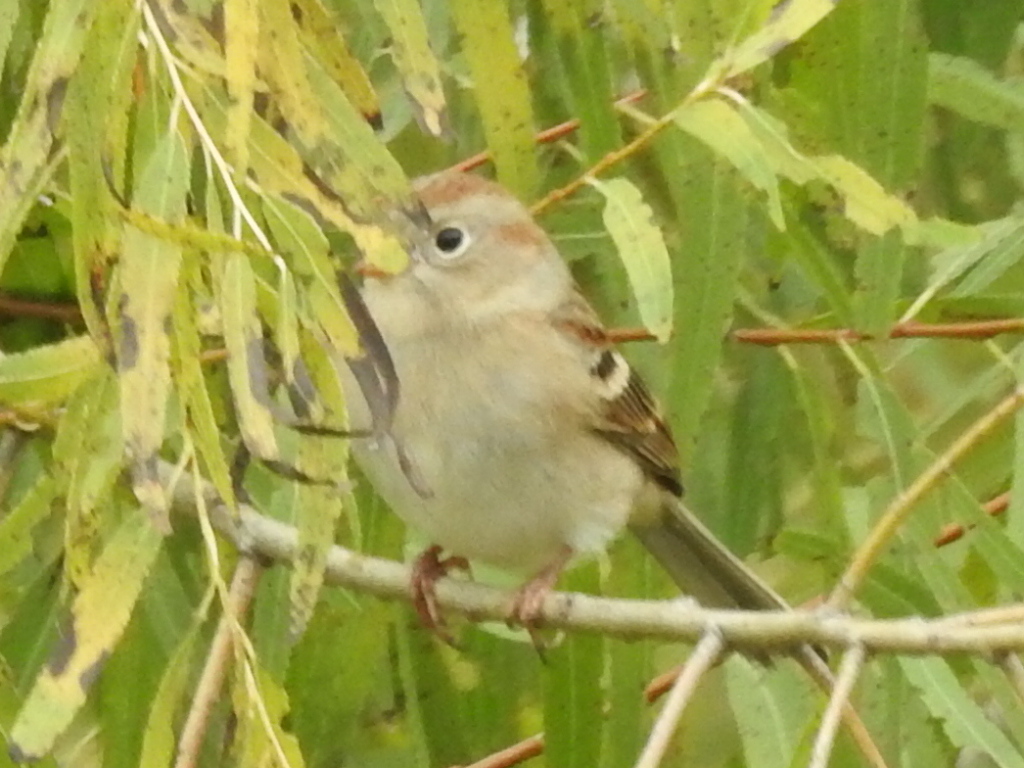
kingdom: Animalia
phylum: Chordata
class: Aves
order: Passeriformes
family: Passerellidae
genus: Spizella
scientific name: Spizella pusilla
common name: Field sparrow
